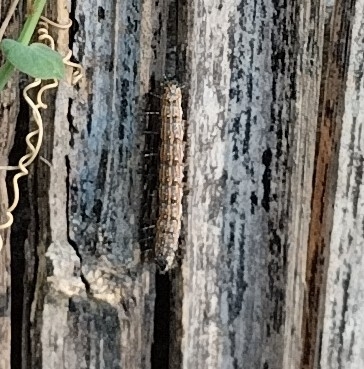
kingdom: Animalia
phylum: Arthropoda
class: Insecta
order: Lepidoptera
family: Nymphalidae
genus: Dione
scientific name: Dione vanillae
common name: Gulf fritillary
